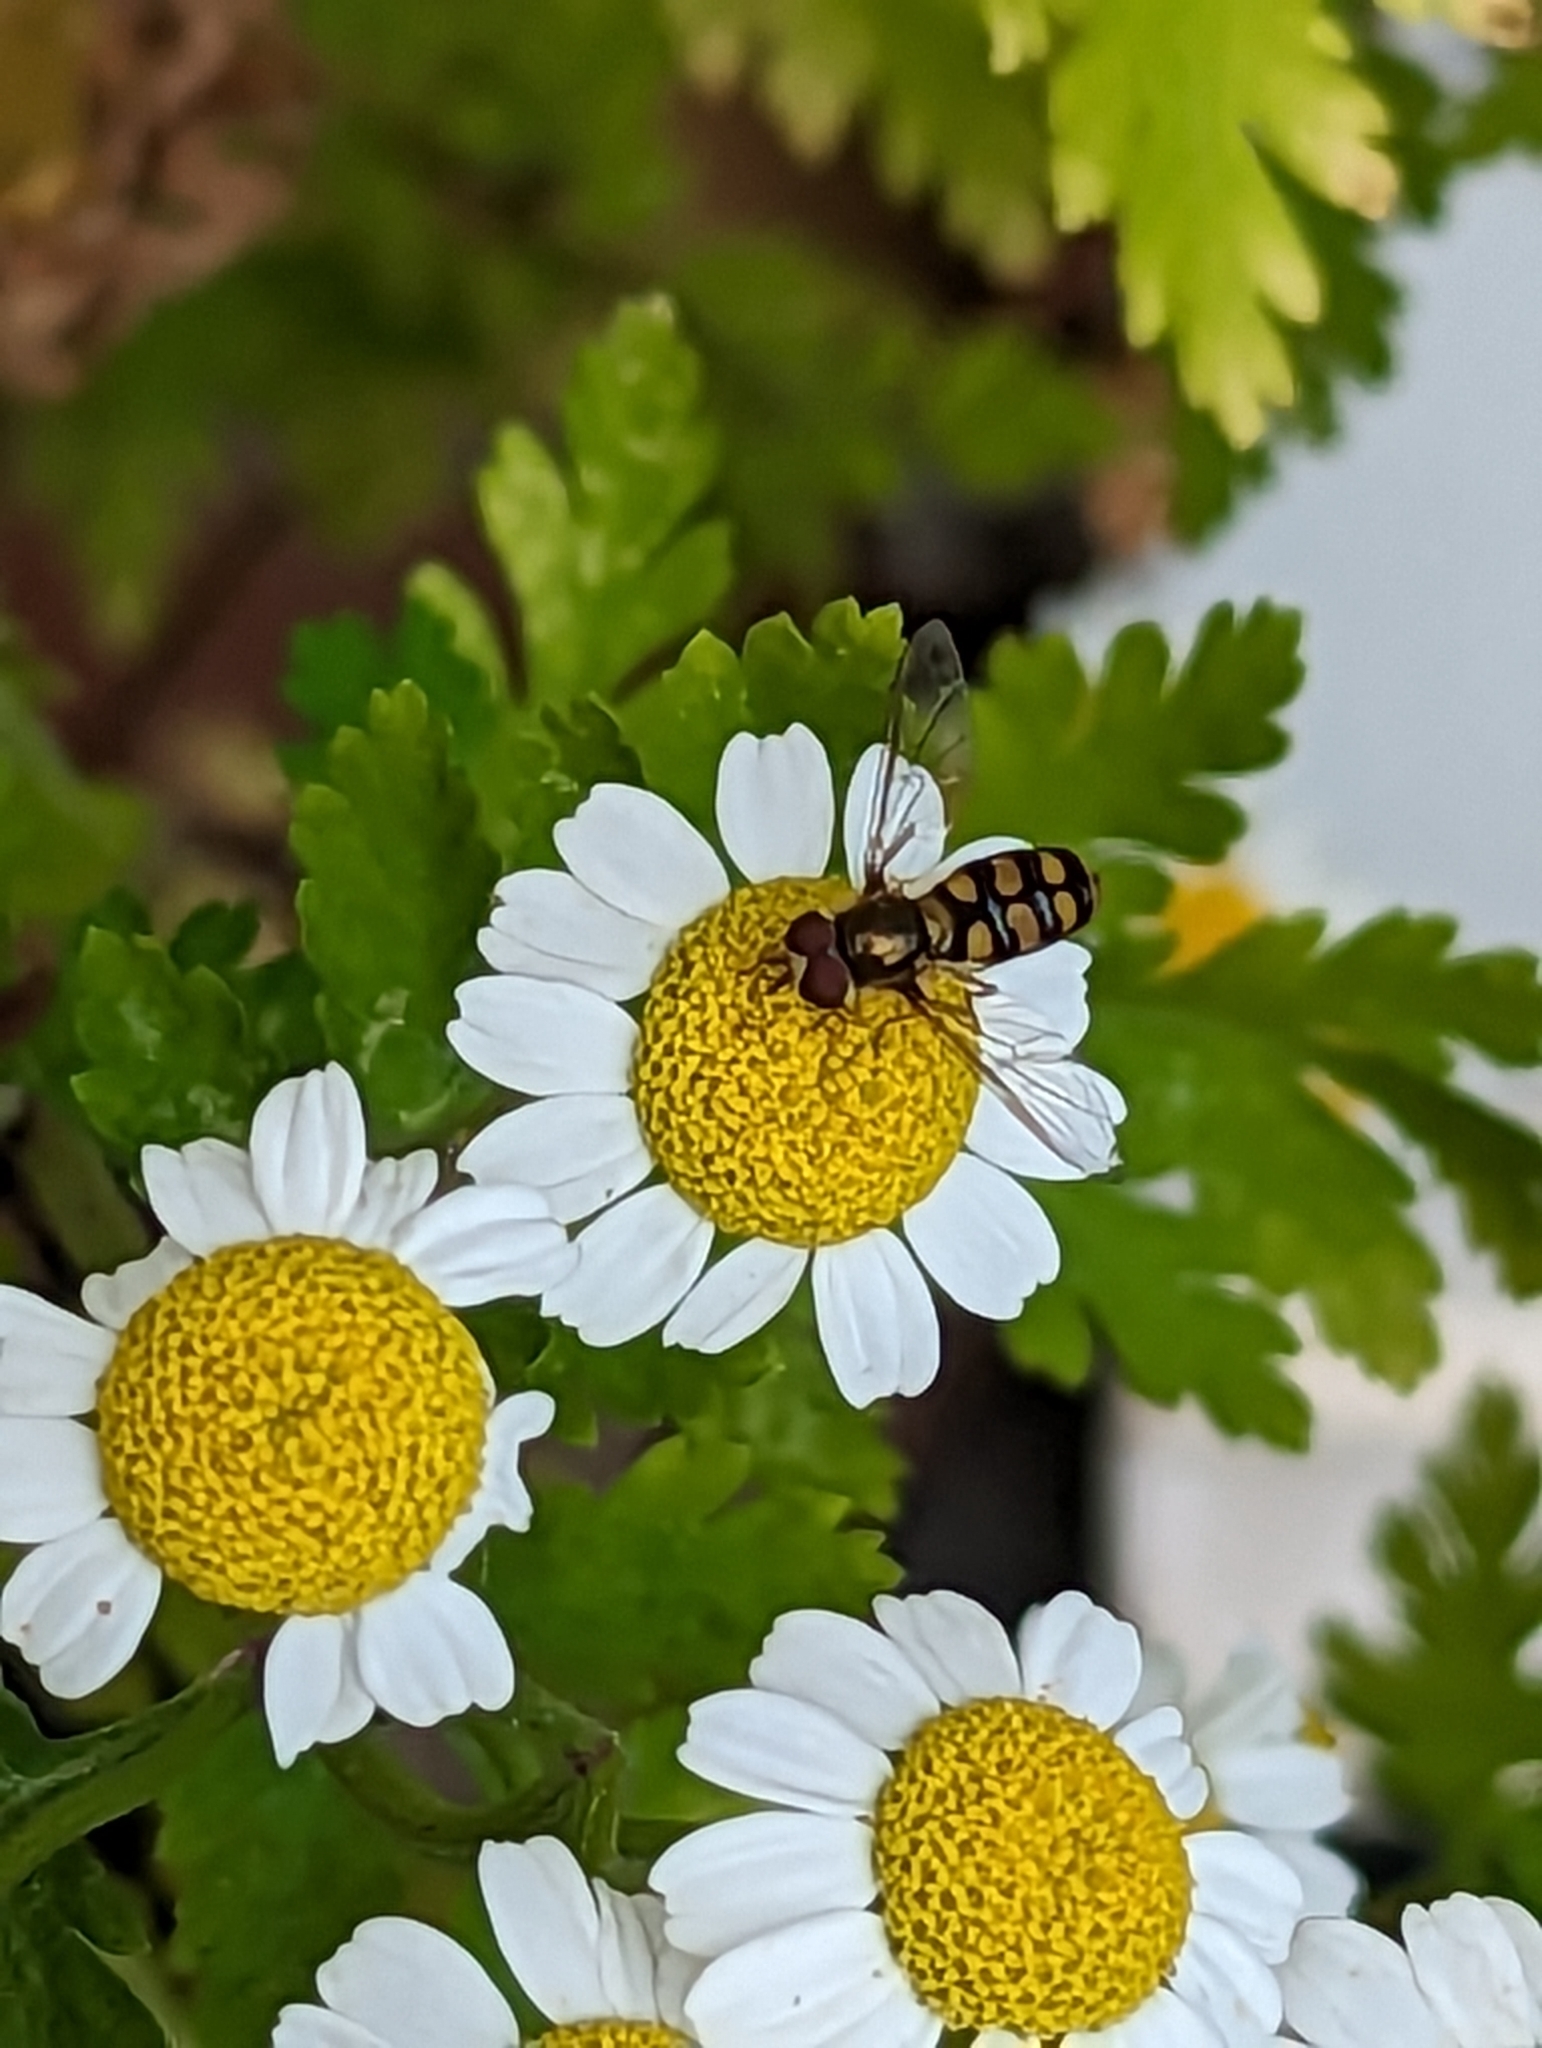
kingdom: Animalia
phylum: Arthropoda
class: Insecta
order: Diptera
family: Syrphidae
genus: Eupeodes
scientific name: Eupeodes
